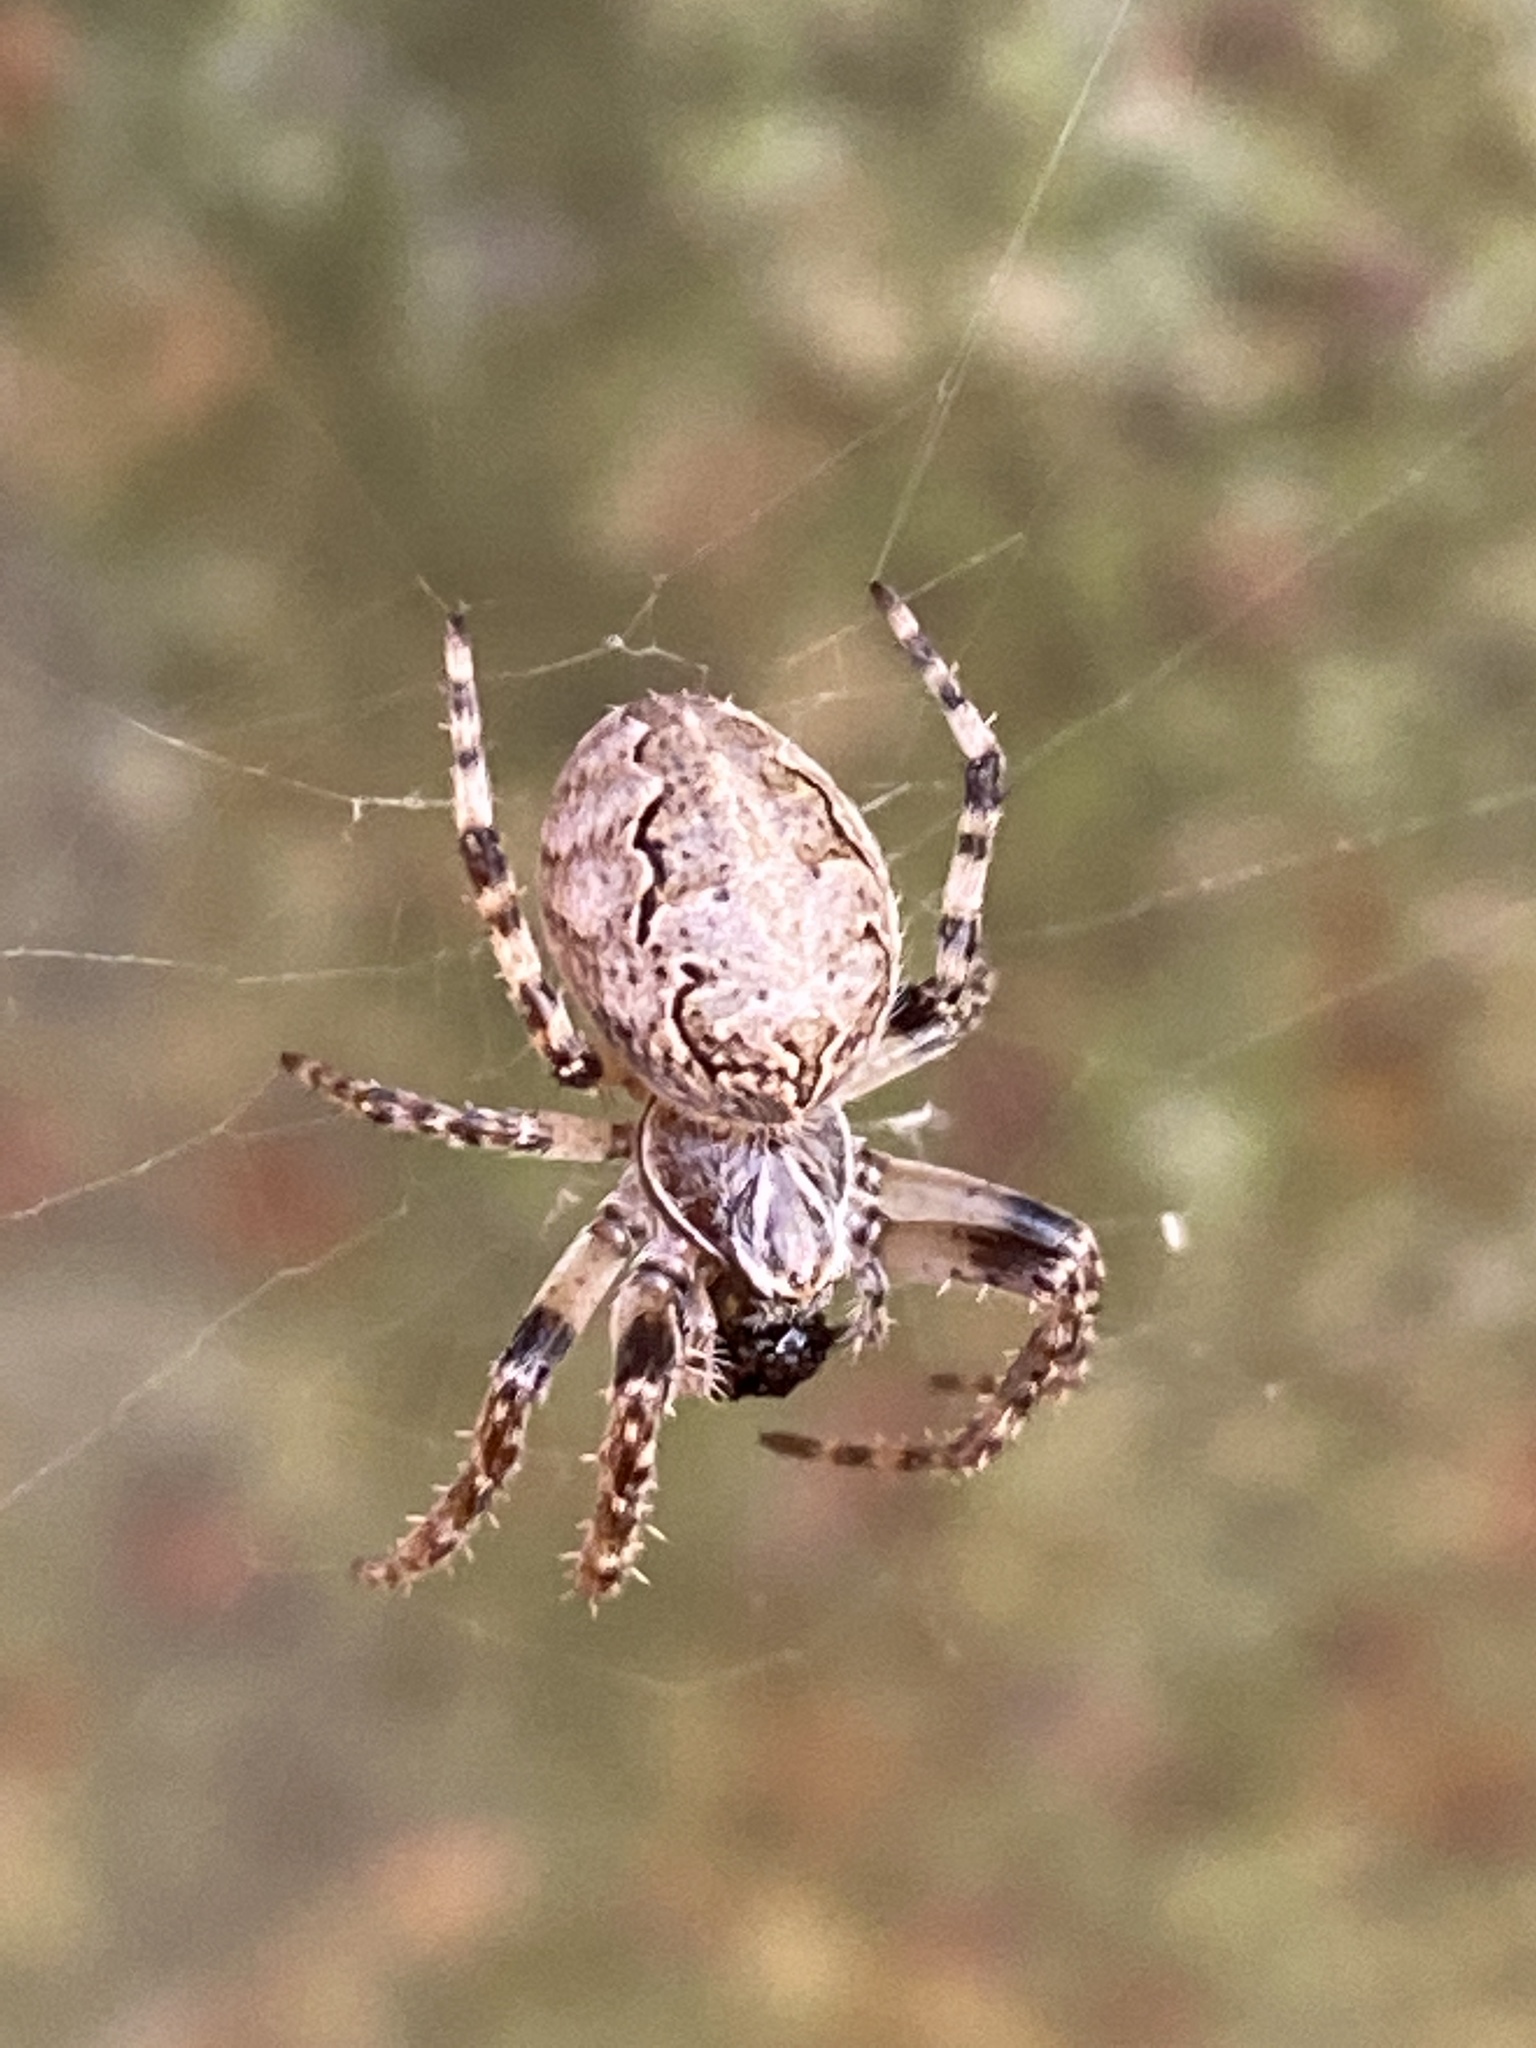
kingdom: Animalia
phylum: Arthropoda
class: Arachnida
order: Araneae
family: Araneidae
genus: Larinioides
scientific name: Larinioides sclopetarius
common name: Bridge orbweaver
